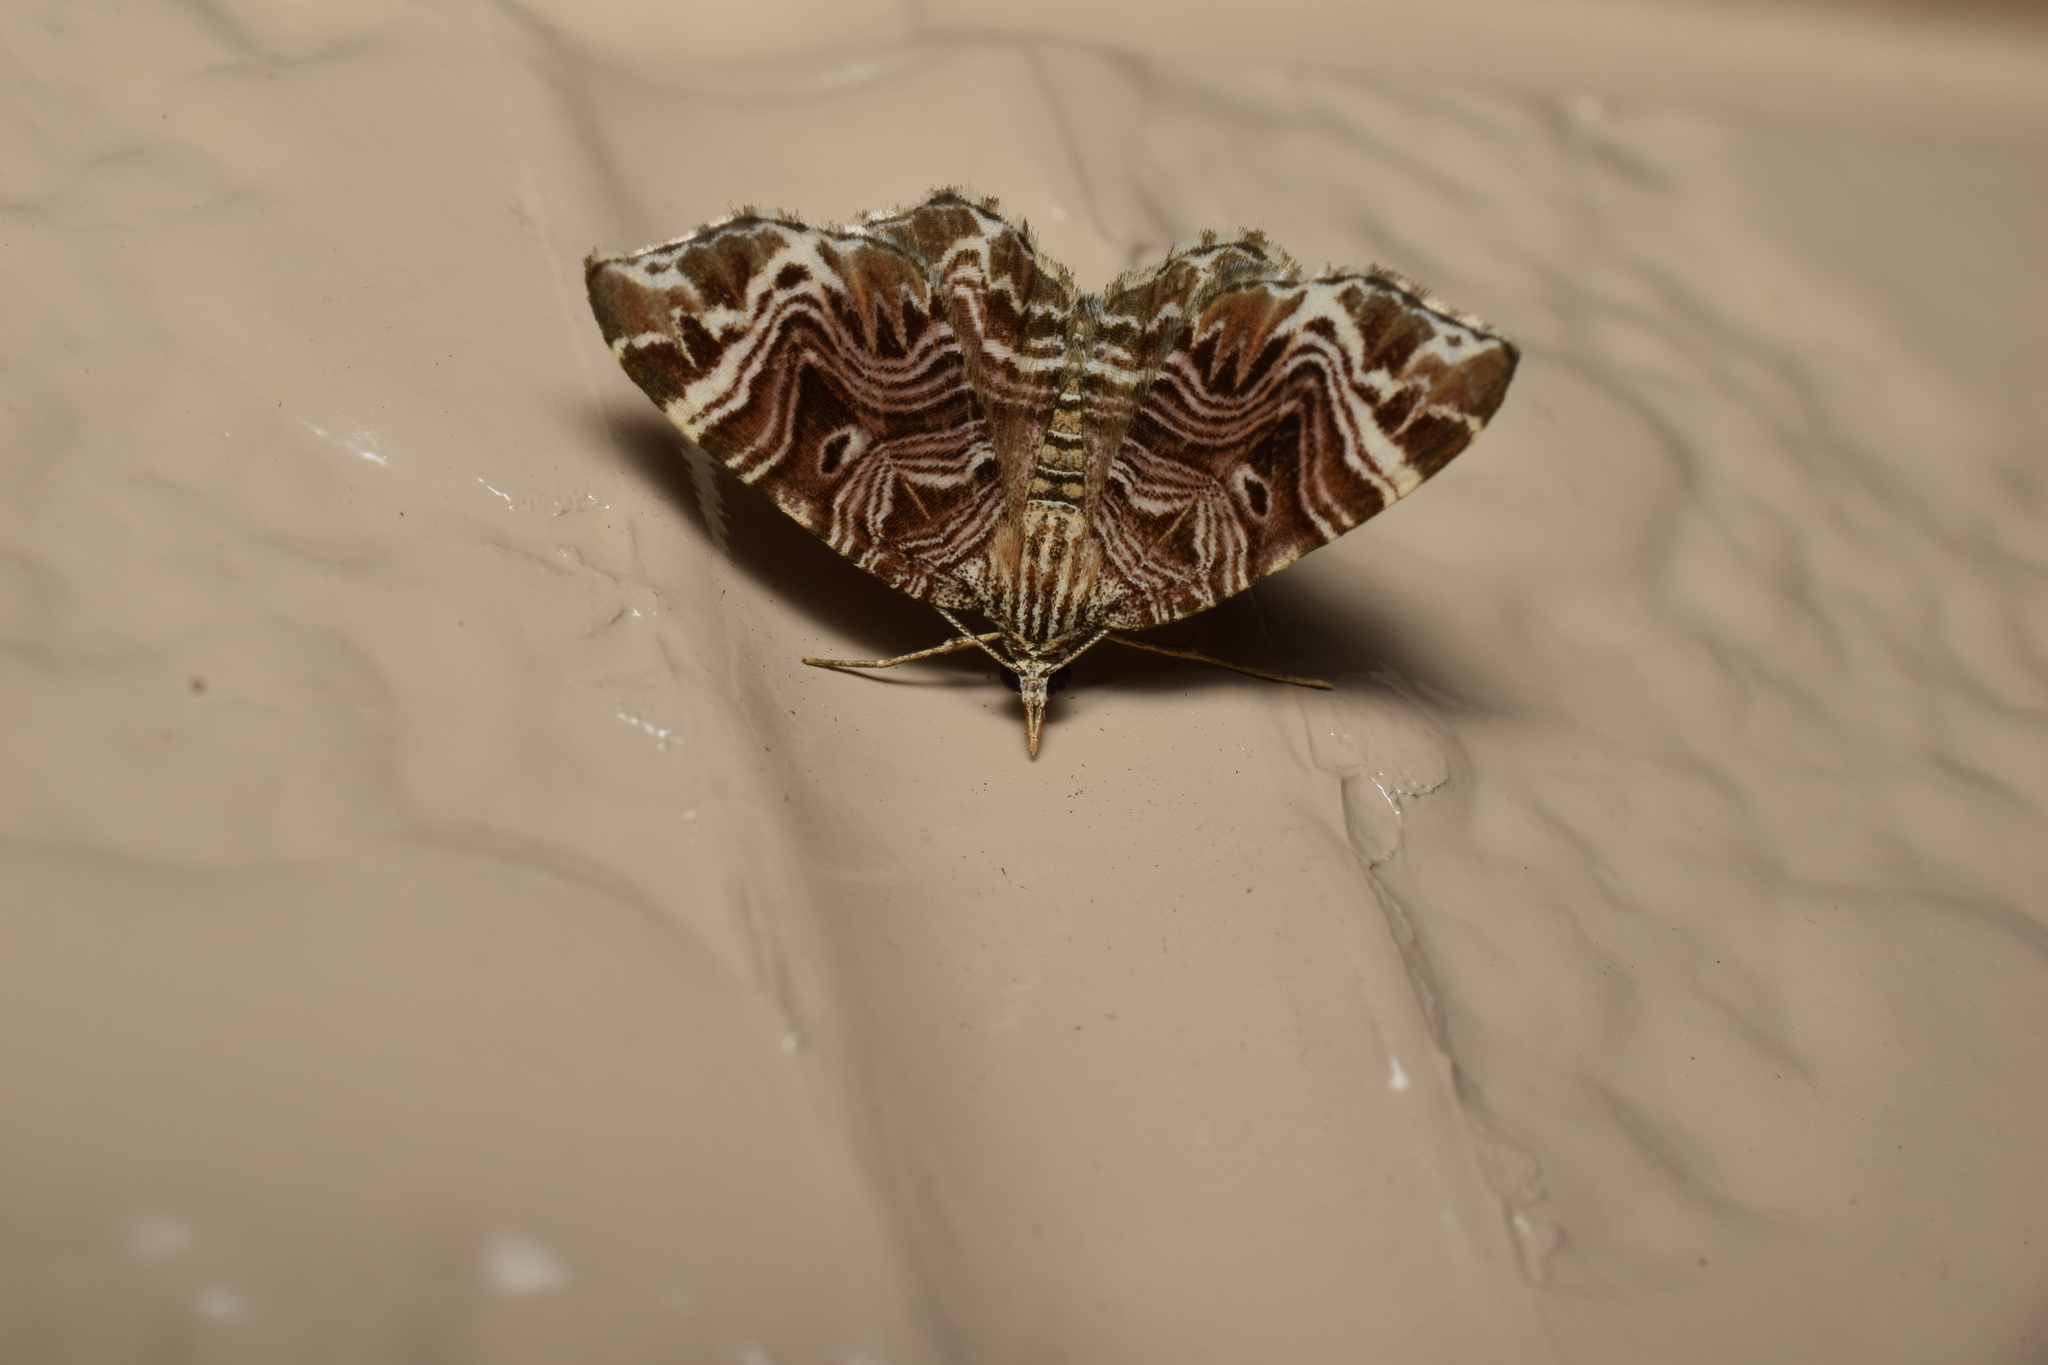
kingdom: Animalia
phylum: Arthropoda
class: Insecta
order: Lepidoptera
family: Geometridae
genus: Microlygris
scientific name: Microlygris multistriata
